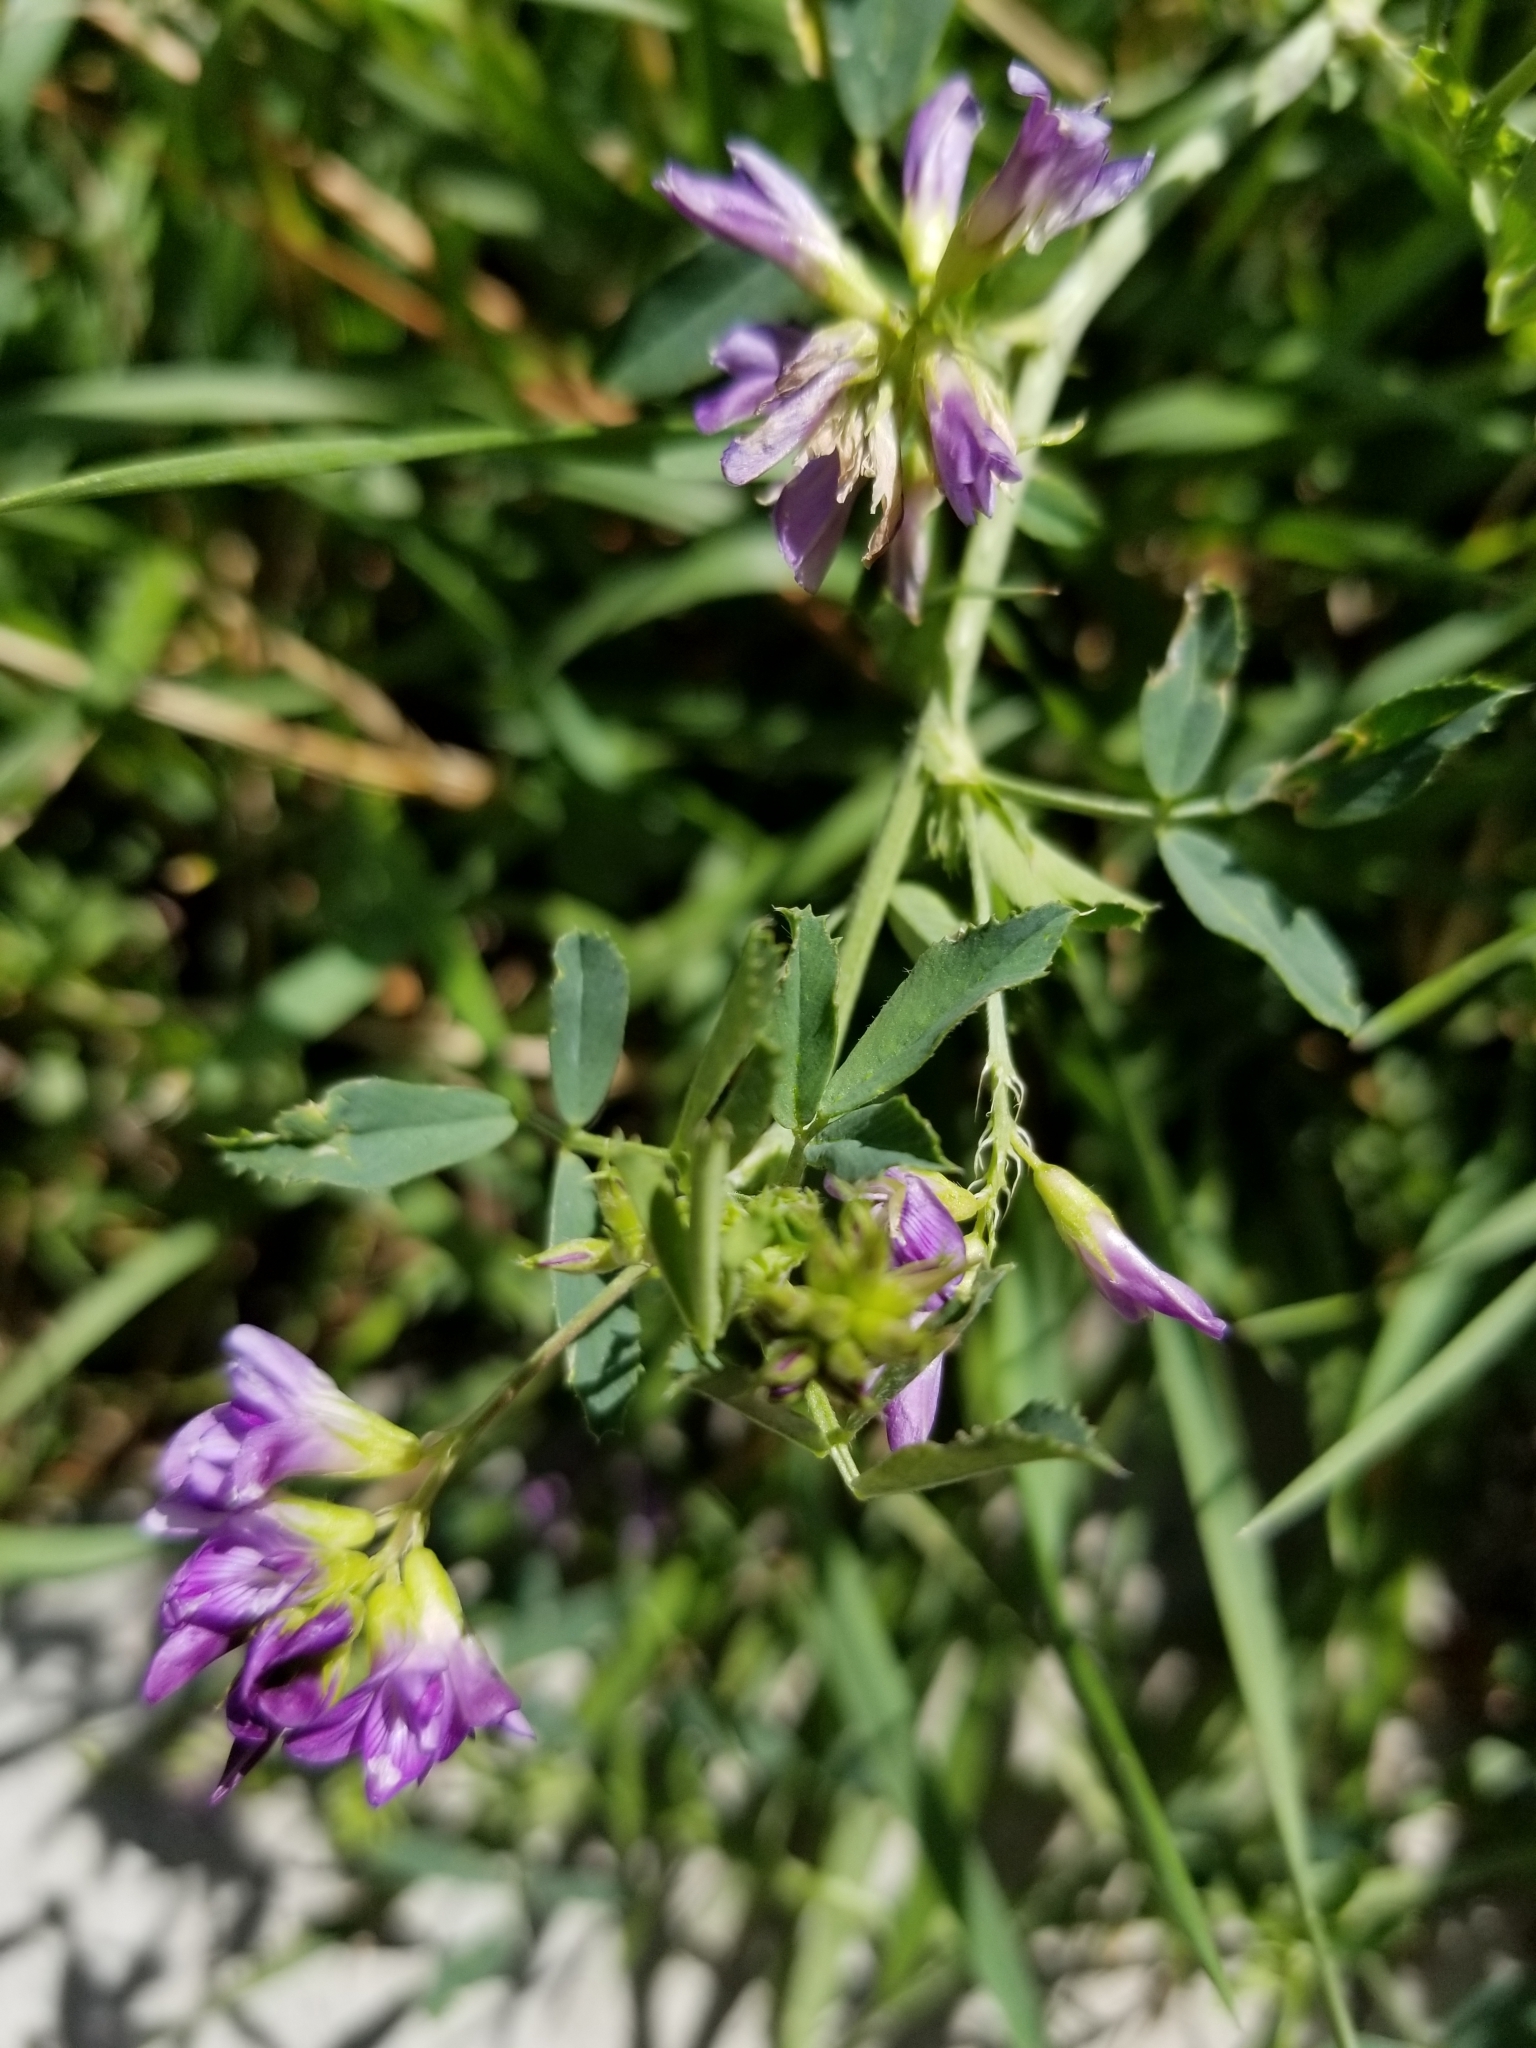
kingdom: Plantae
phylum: Tracheophyta
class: Magnoliopsida
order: Fabales
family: Fabaceae
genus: Medicago
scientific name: Medicago sativa
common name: Alfalfa
